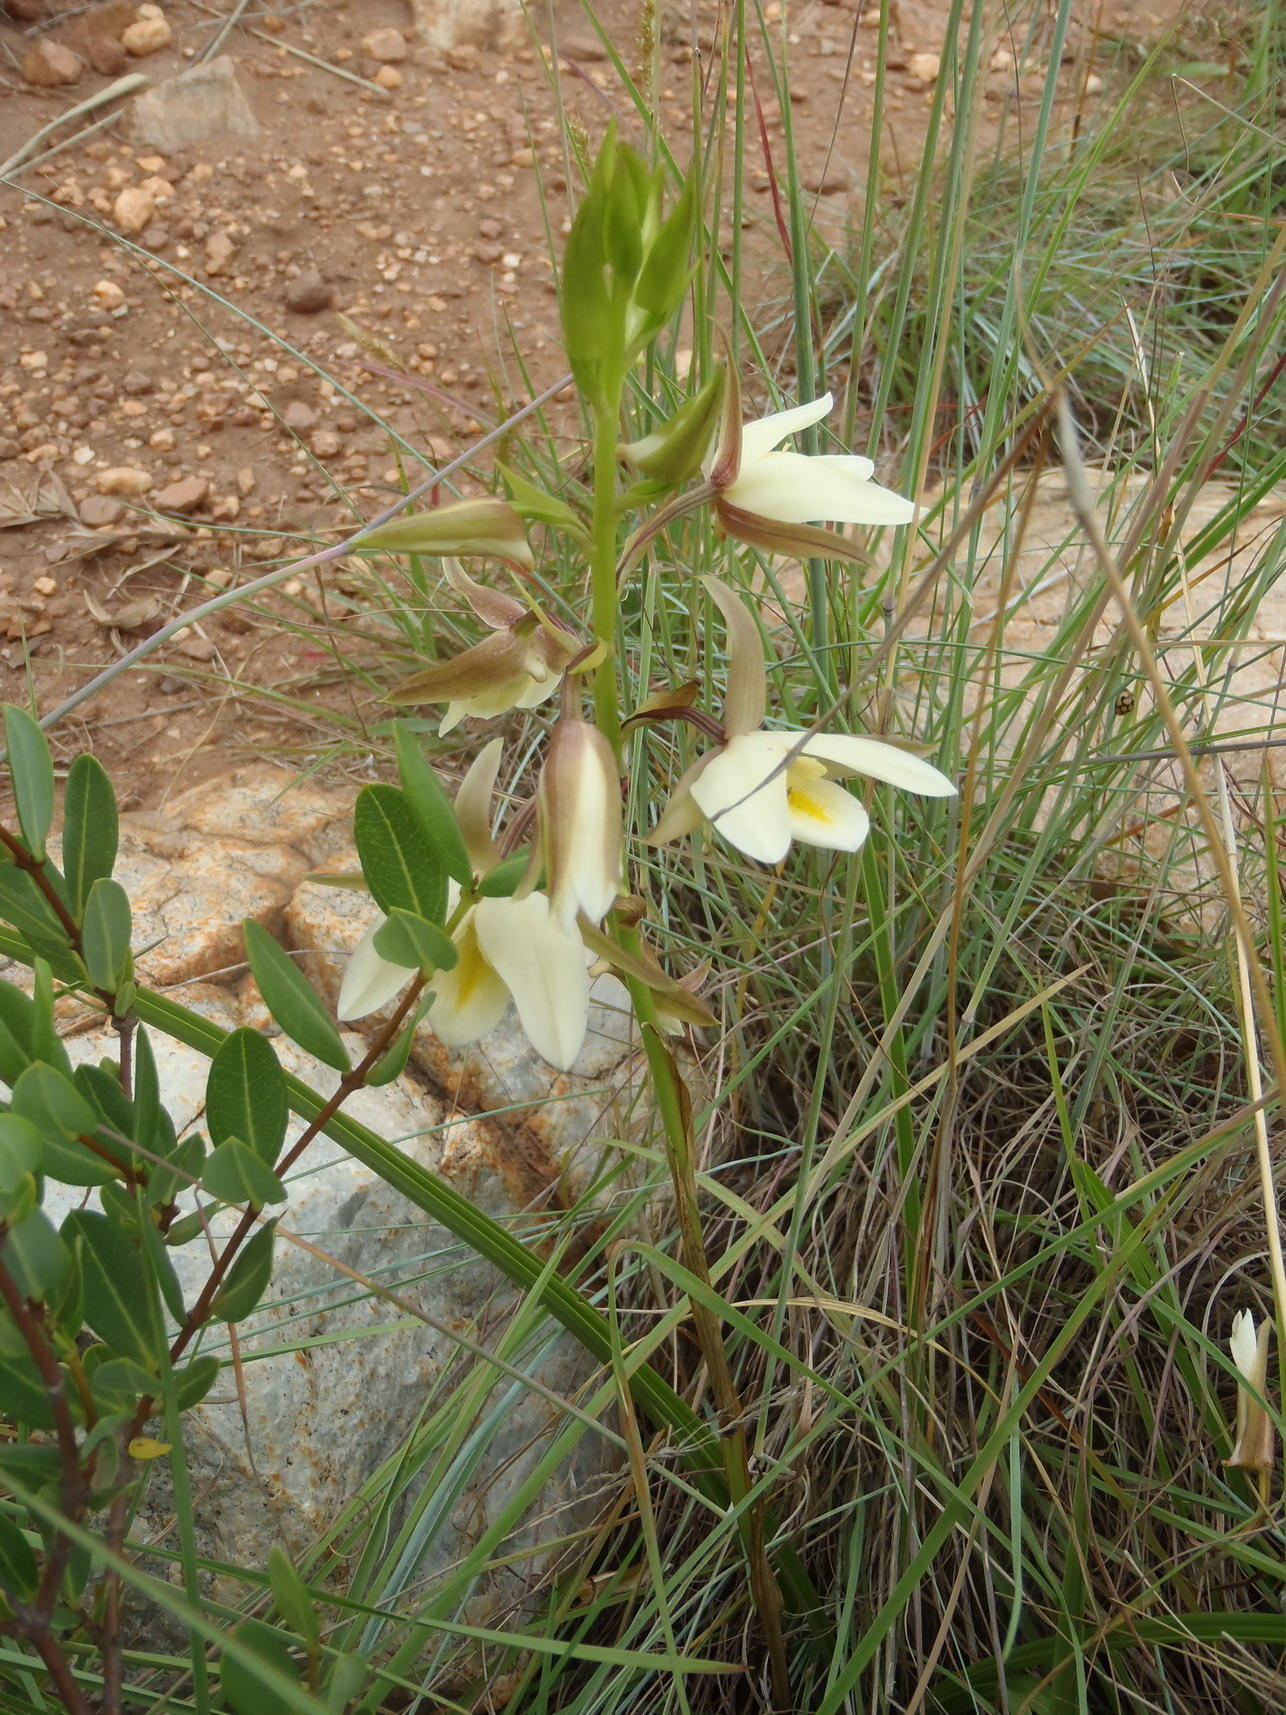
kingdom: Plantae
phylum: Tracheophyta
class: Liliopsida
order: Asparagales
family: Orchidaceae
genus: Eulophia
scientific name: Eulophia ovalis
